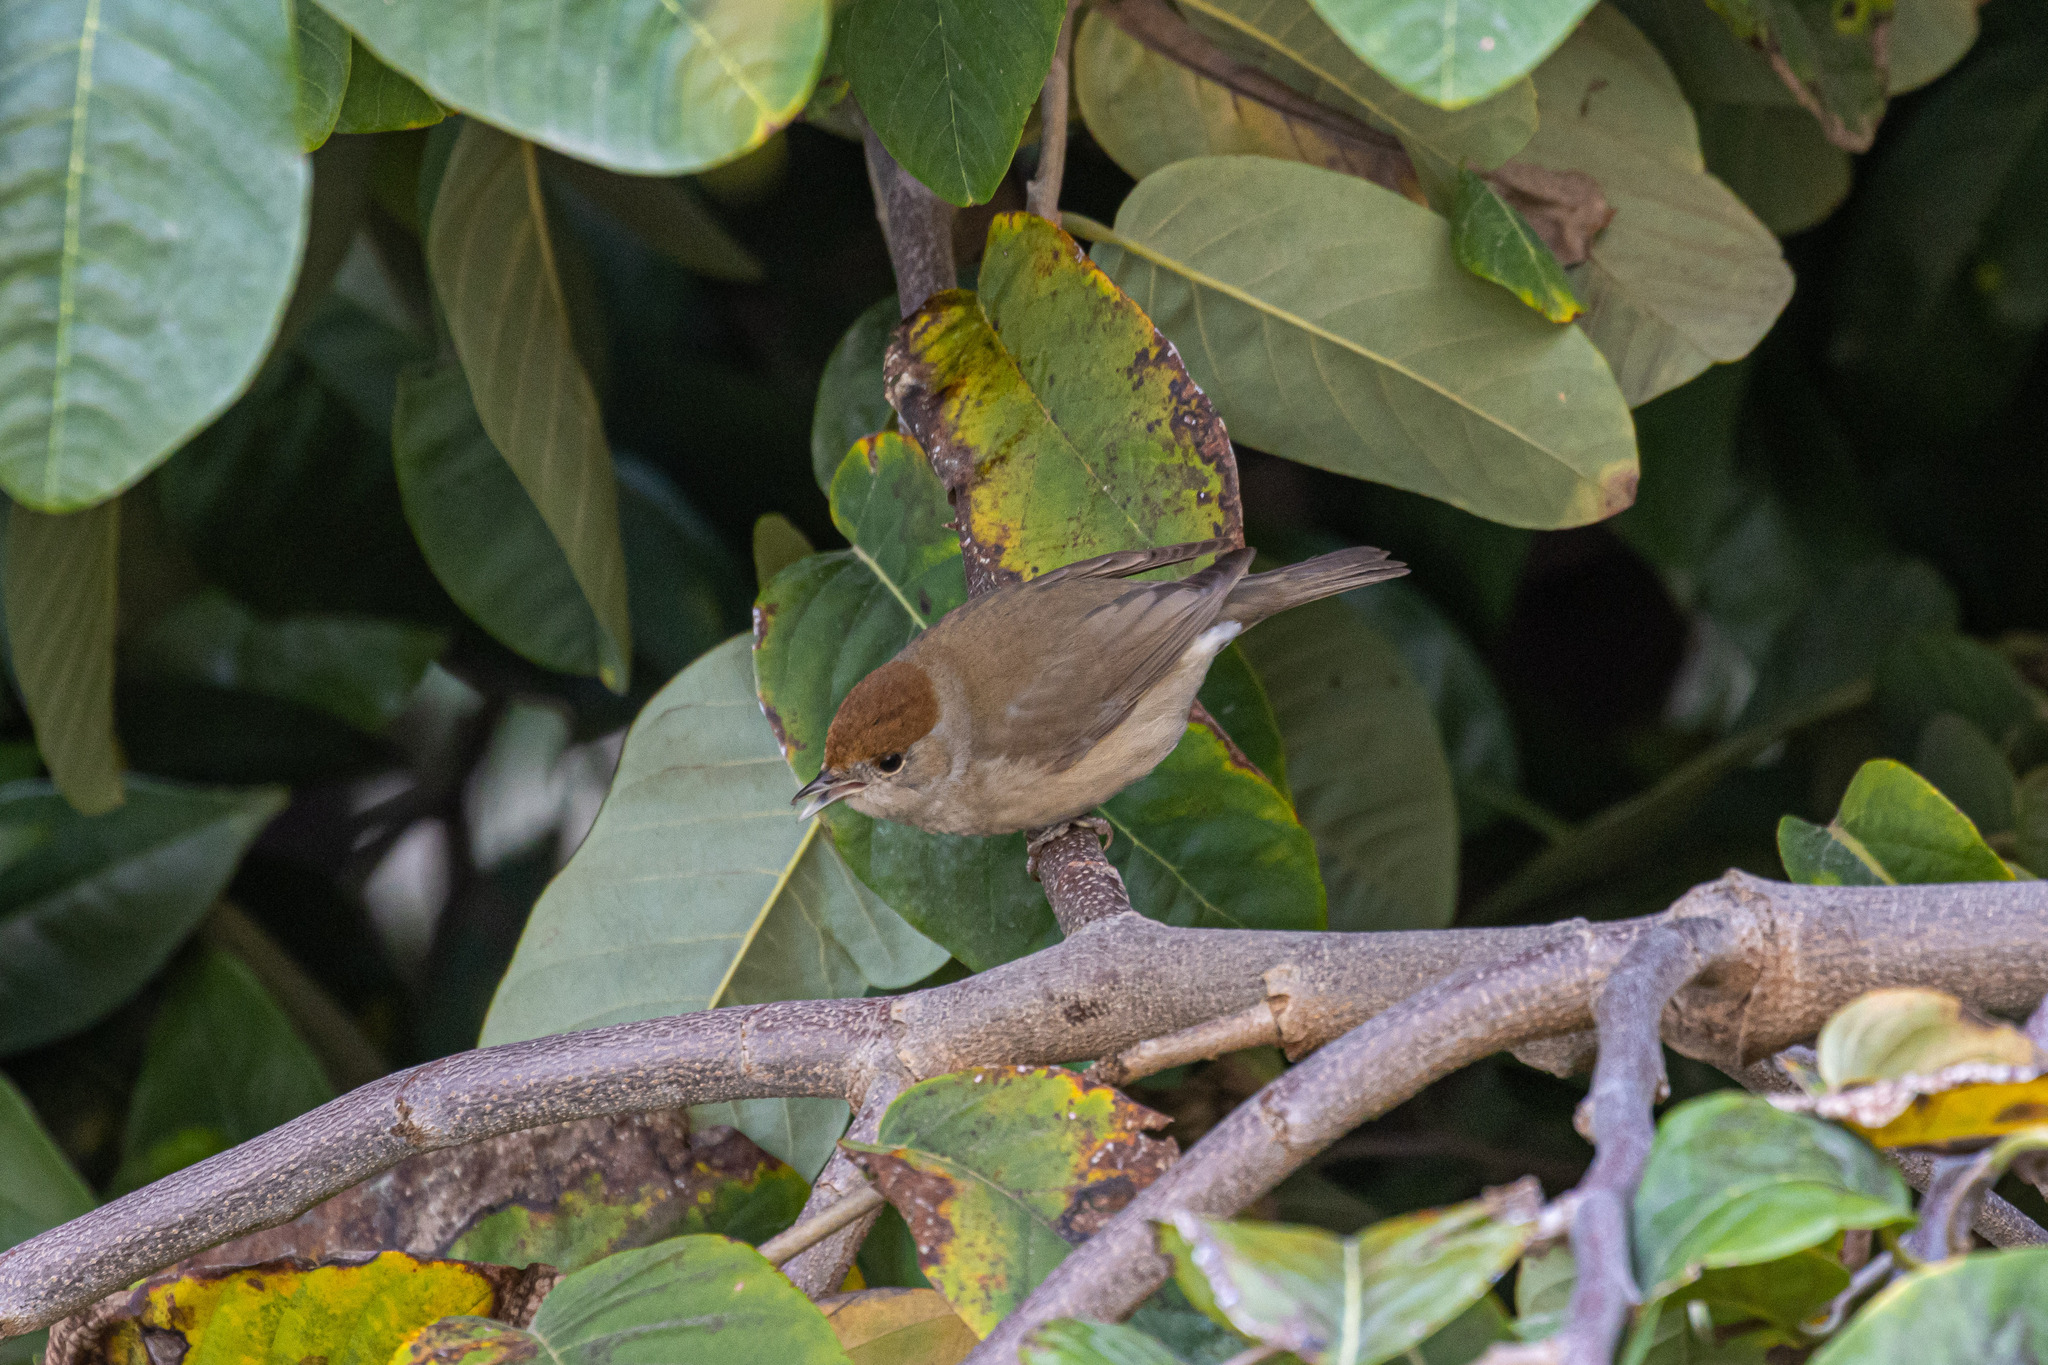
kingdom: Animalia
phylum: Chordata
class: Aves
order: Passeriformes
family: Sylviidae
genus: Sylvia
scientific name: Sylvia atricapilla
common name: Eurasian blackcap
